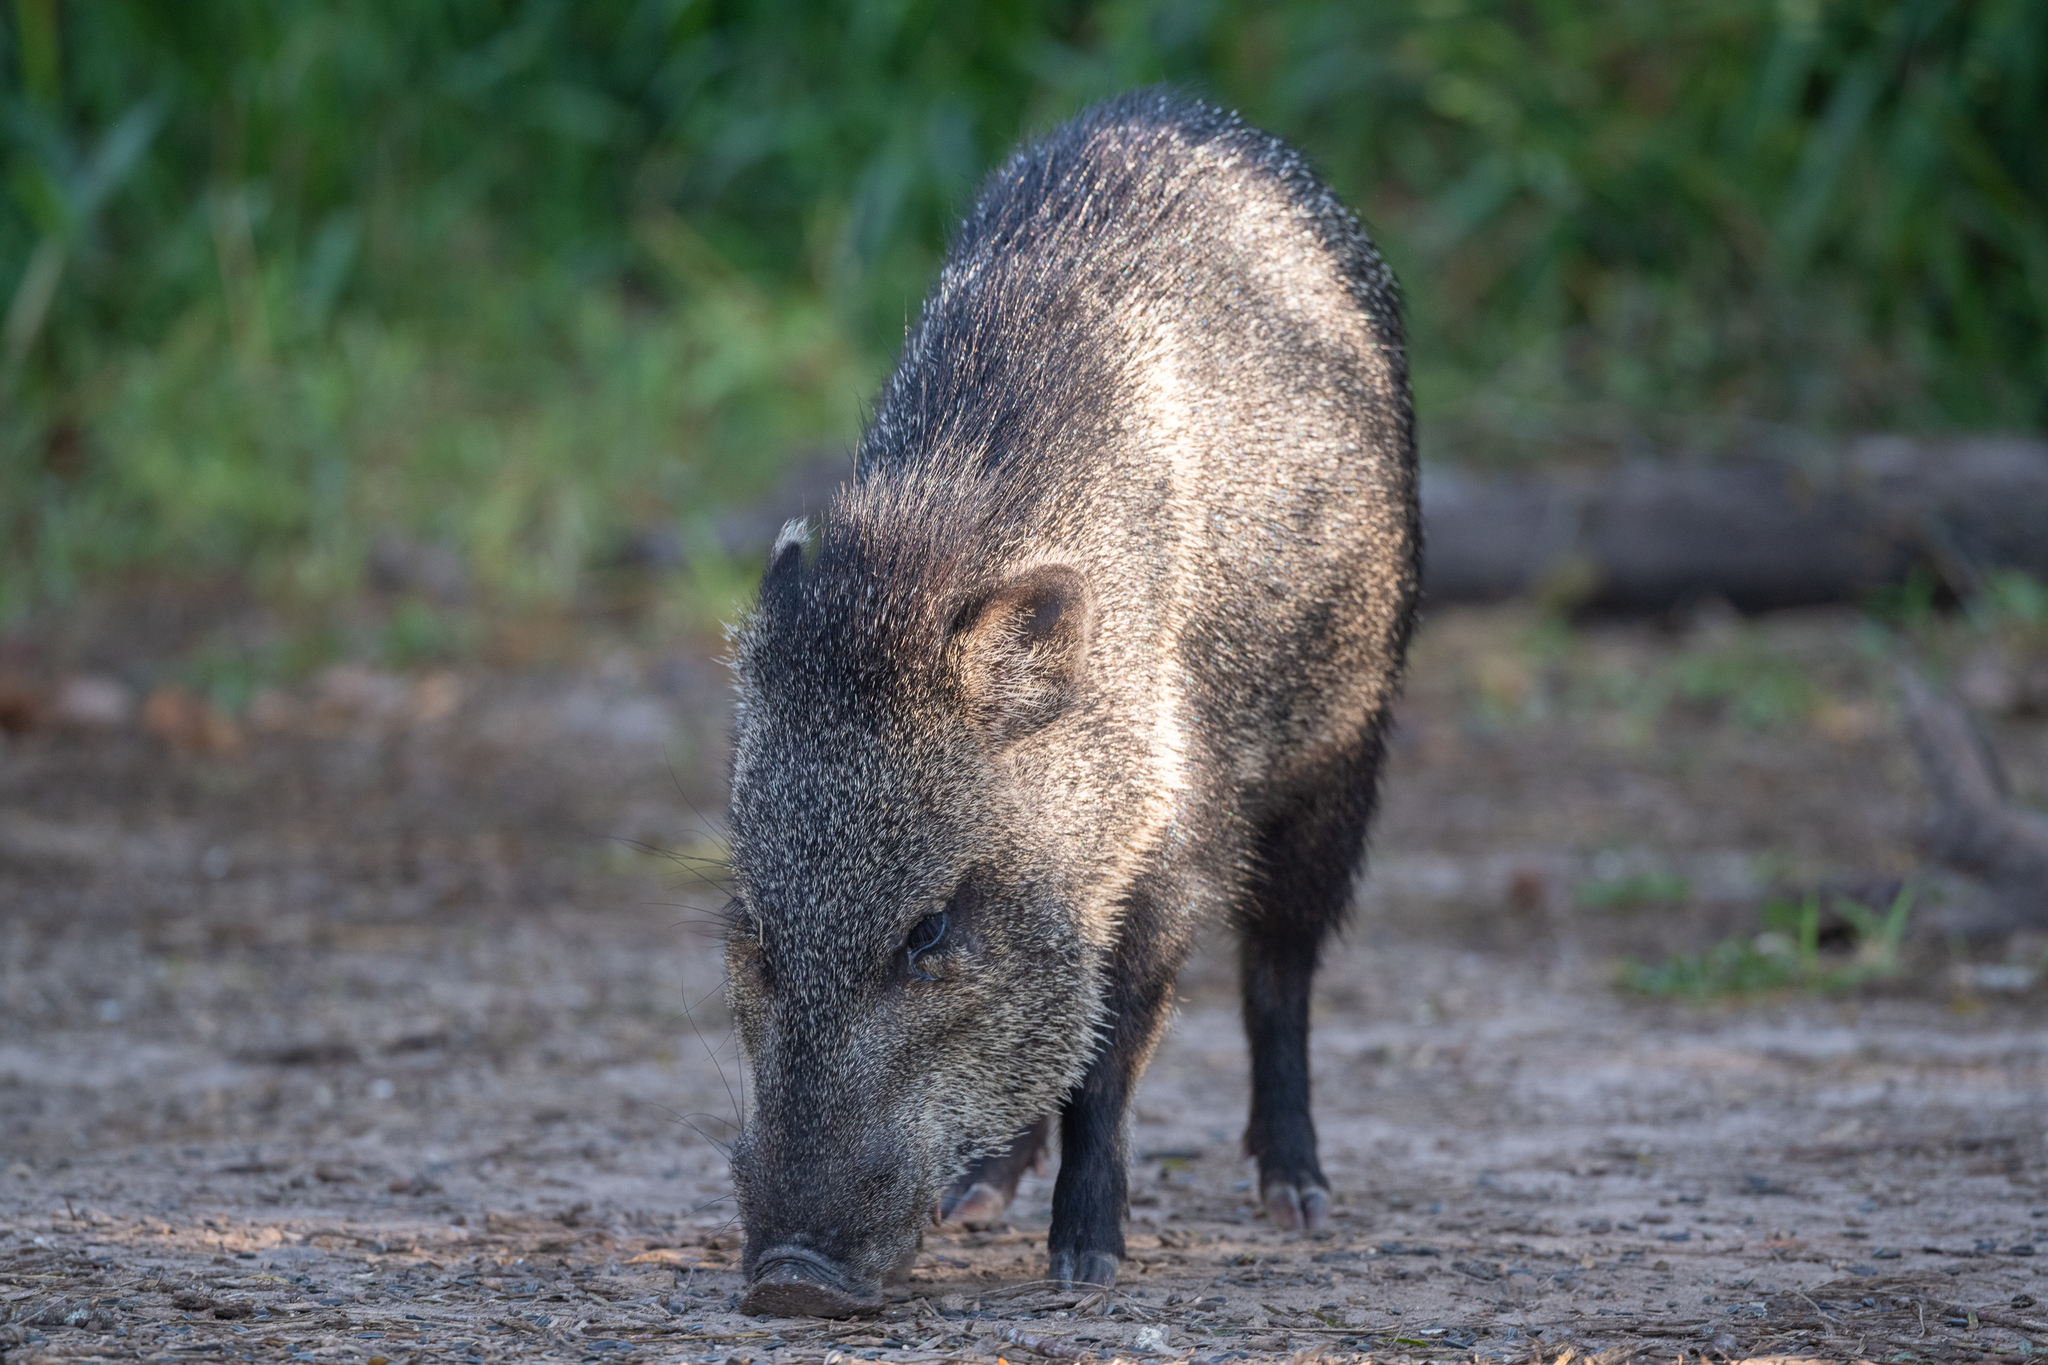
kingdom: Animalia
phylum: Chordata
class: Mammalia
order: Artiodactyla
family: Tayassuidae
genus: Pecari
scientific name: Pecari tajacu
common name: Collared peccary
